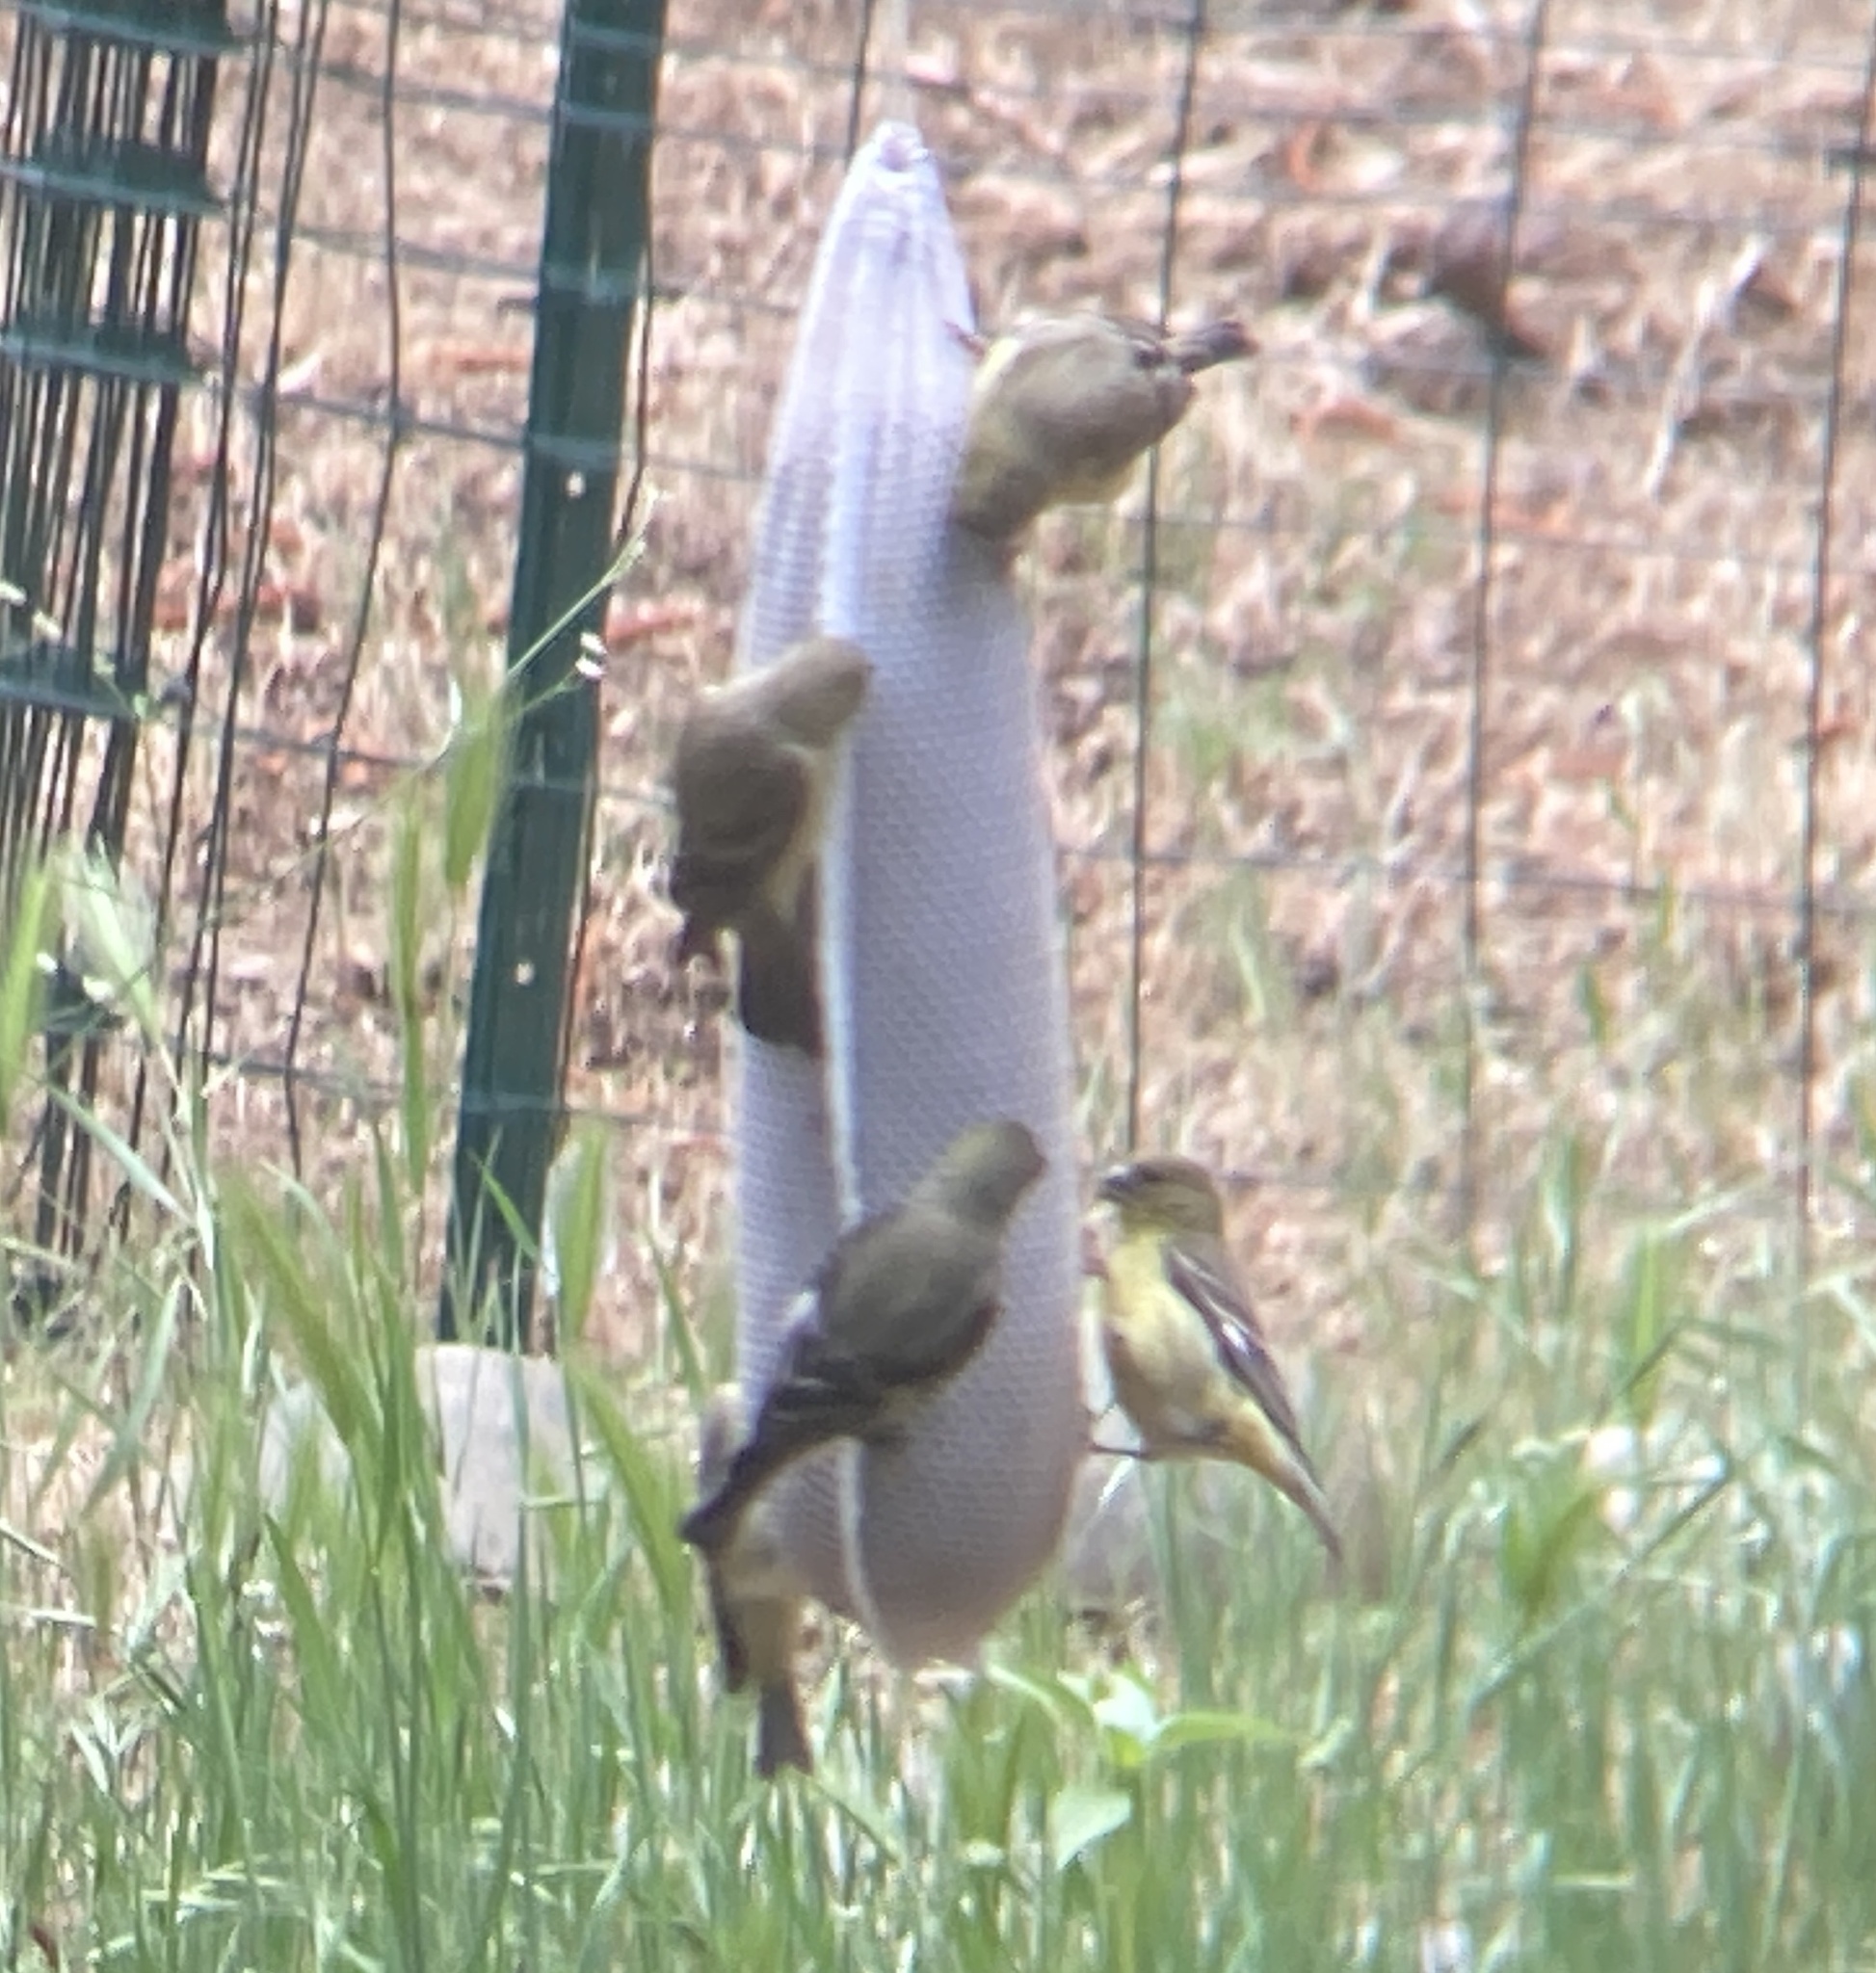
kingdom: Animalia
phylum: Chordata
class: Aves
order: Passeriformes
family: Fringillidae
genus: Spinus
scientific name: Spinus psaltria
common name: Lesser goldfinch
